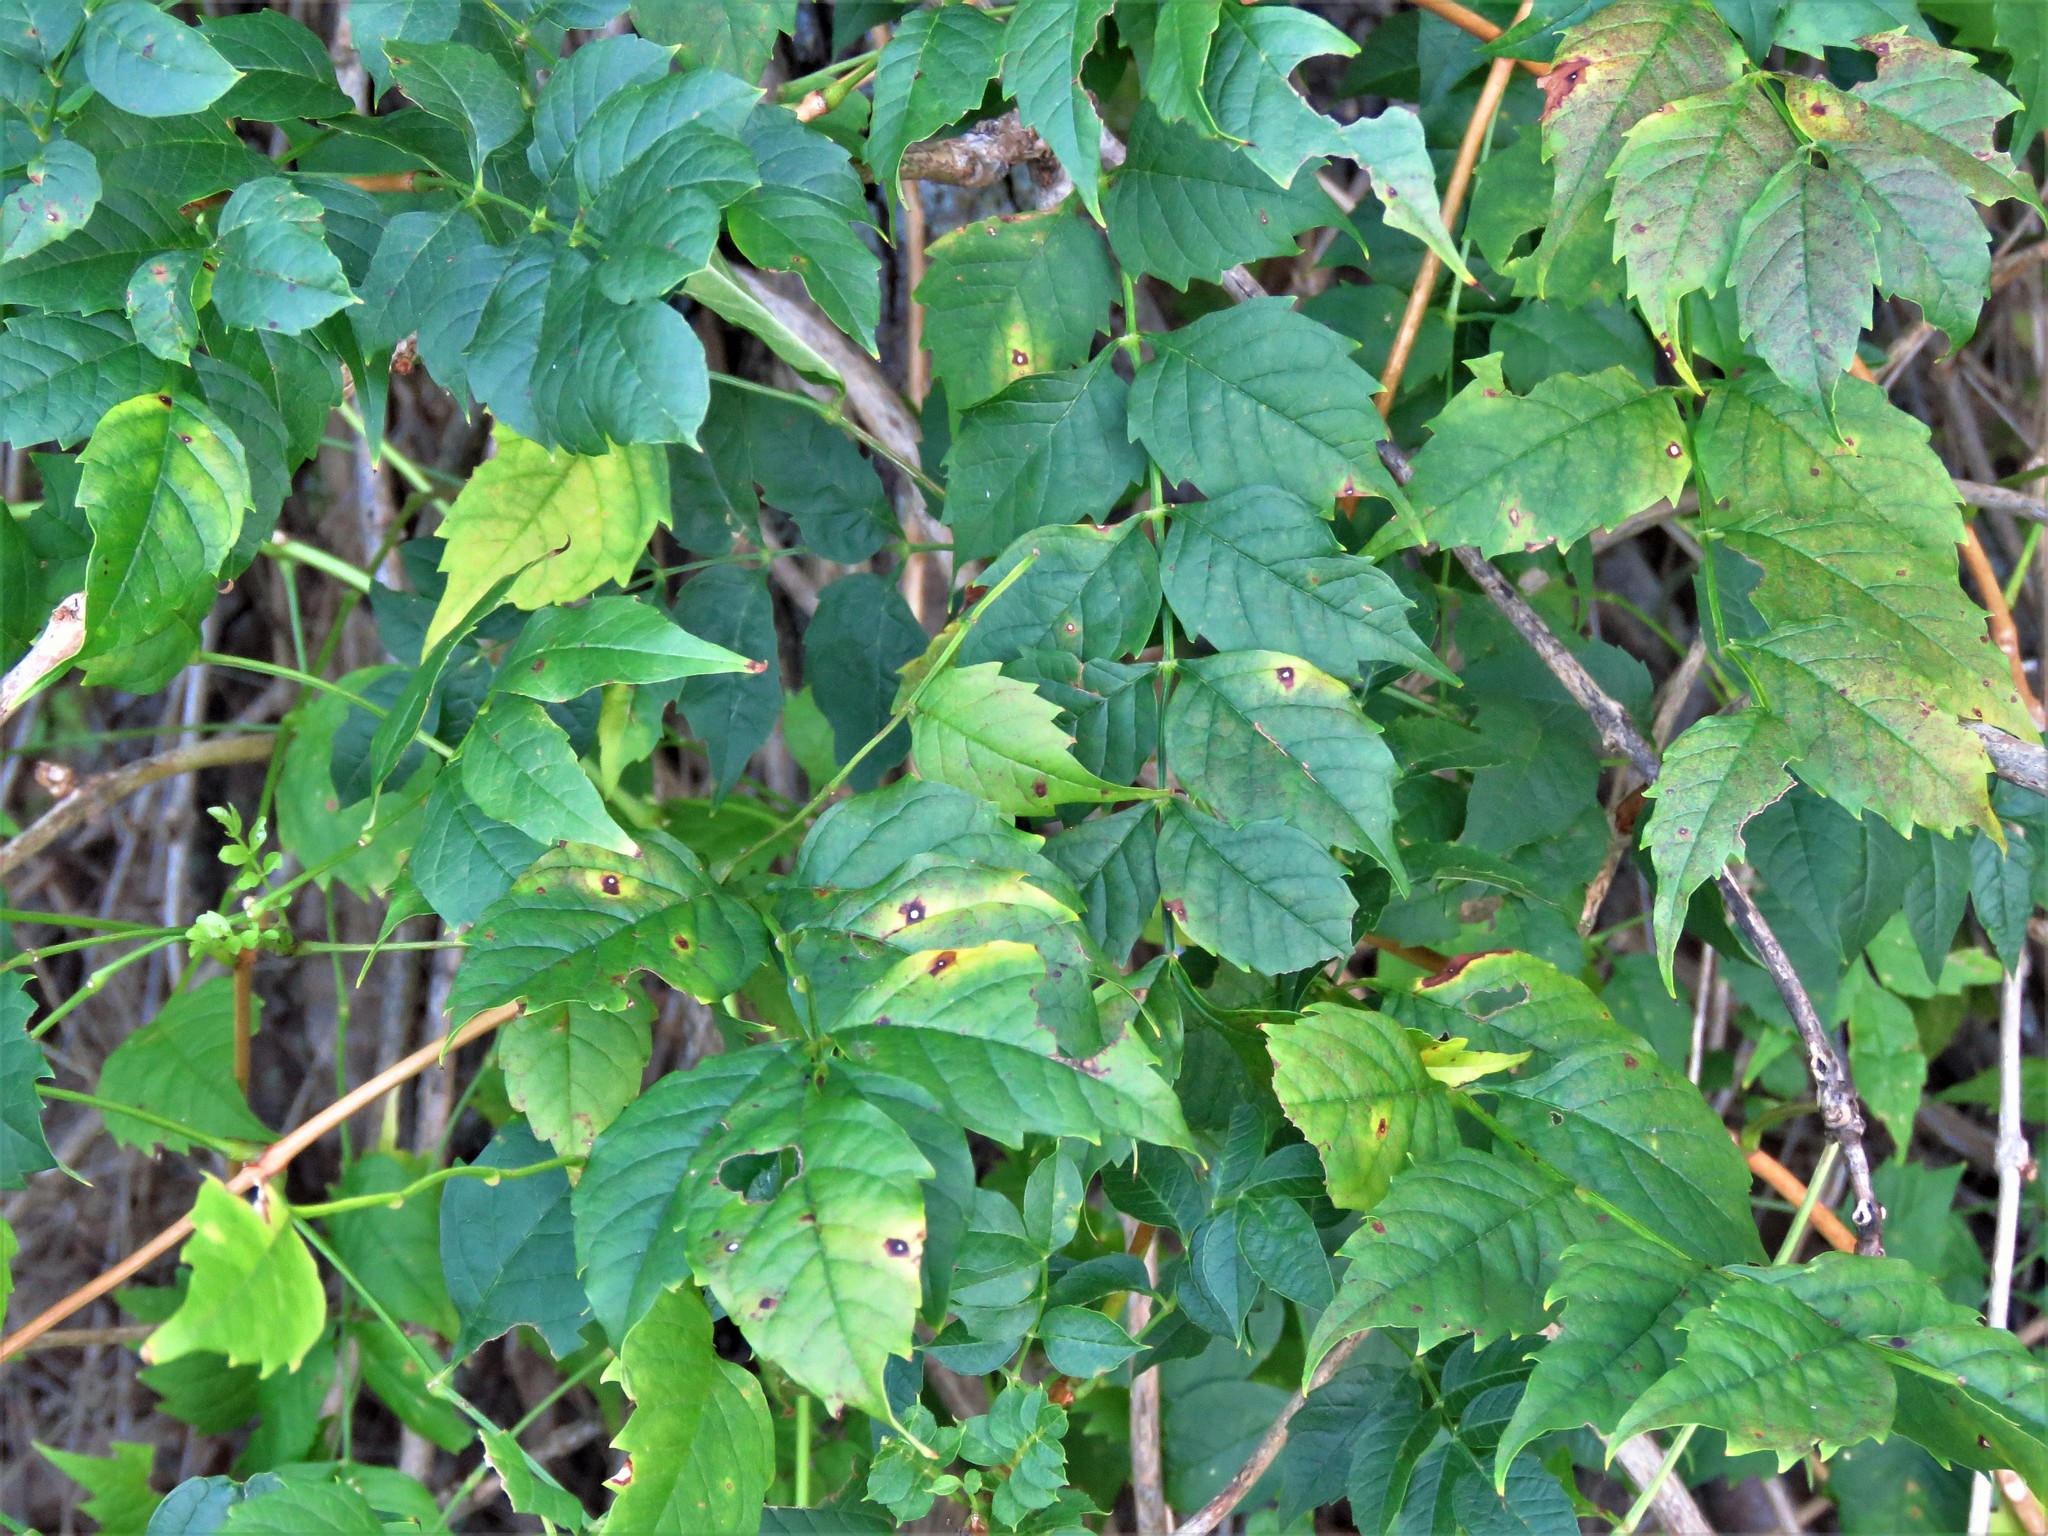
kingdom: Plantae
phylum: Tracheophyta
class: Magnoliopsida
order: Lamiales
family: Bignoniaceae
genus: Campsis
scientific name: Campsis radicans
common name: Trumpet-creeper
